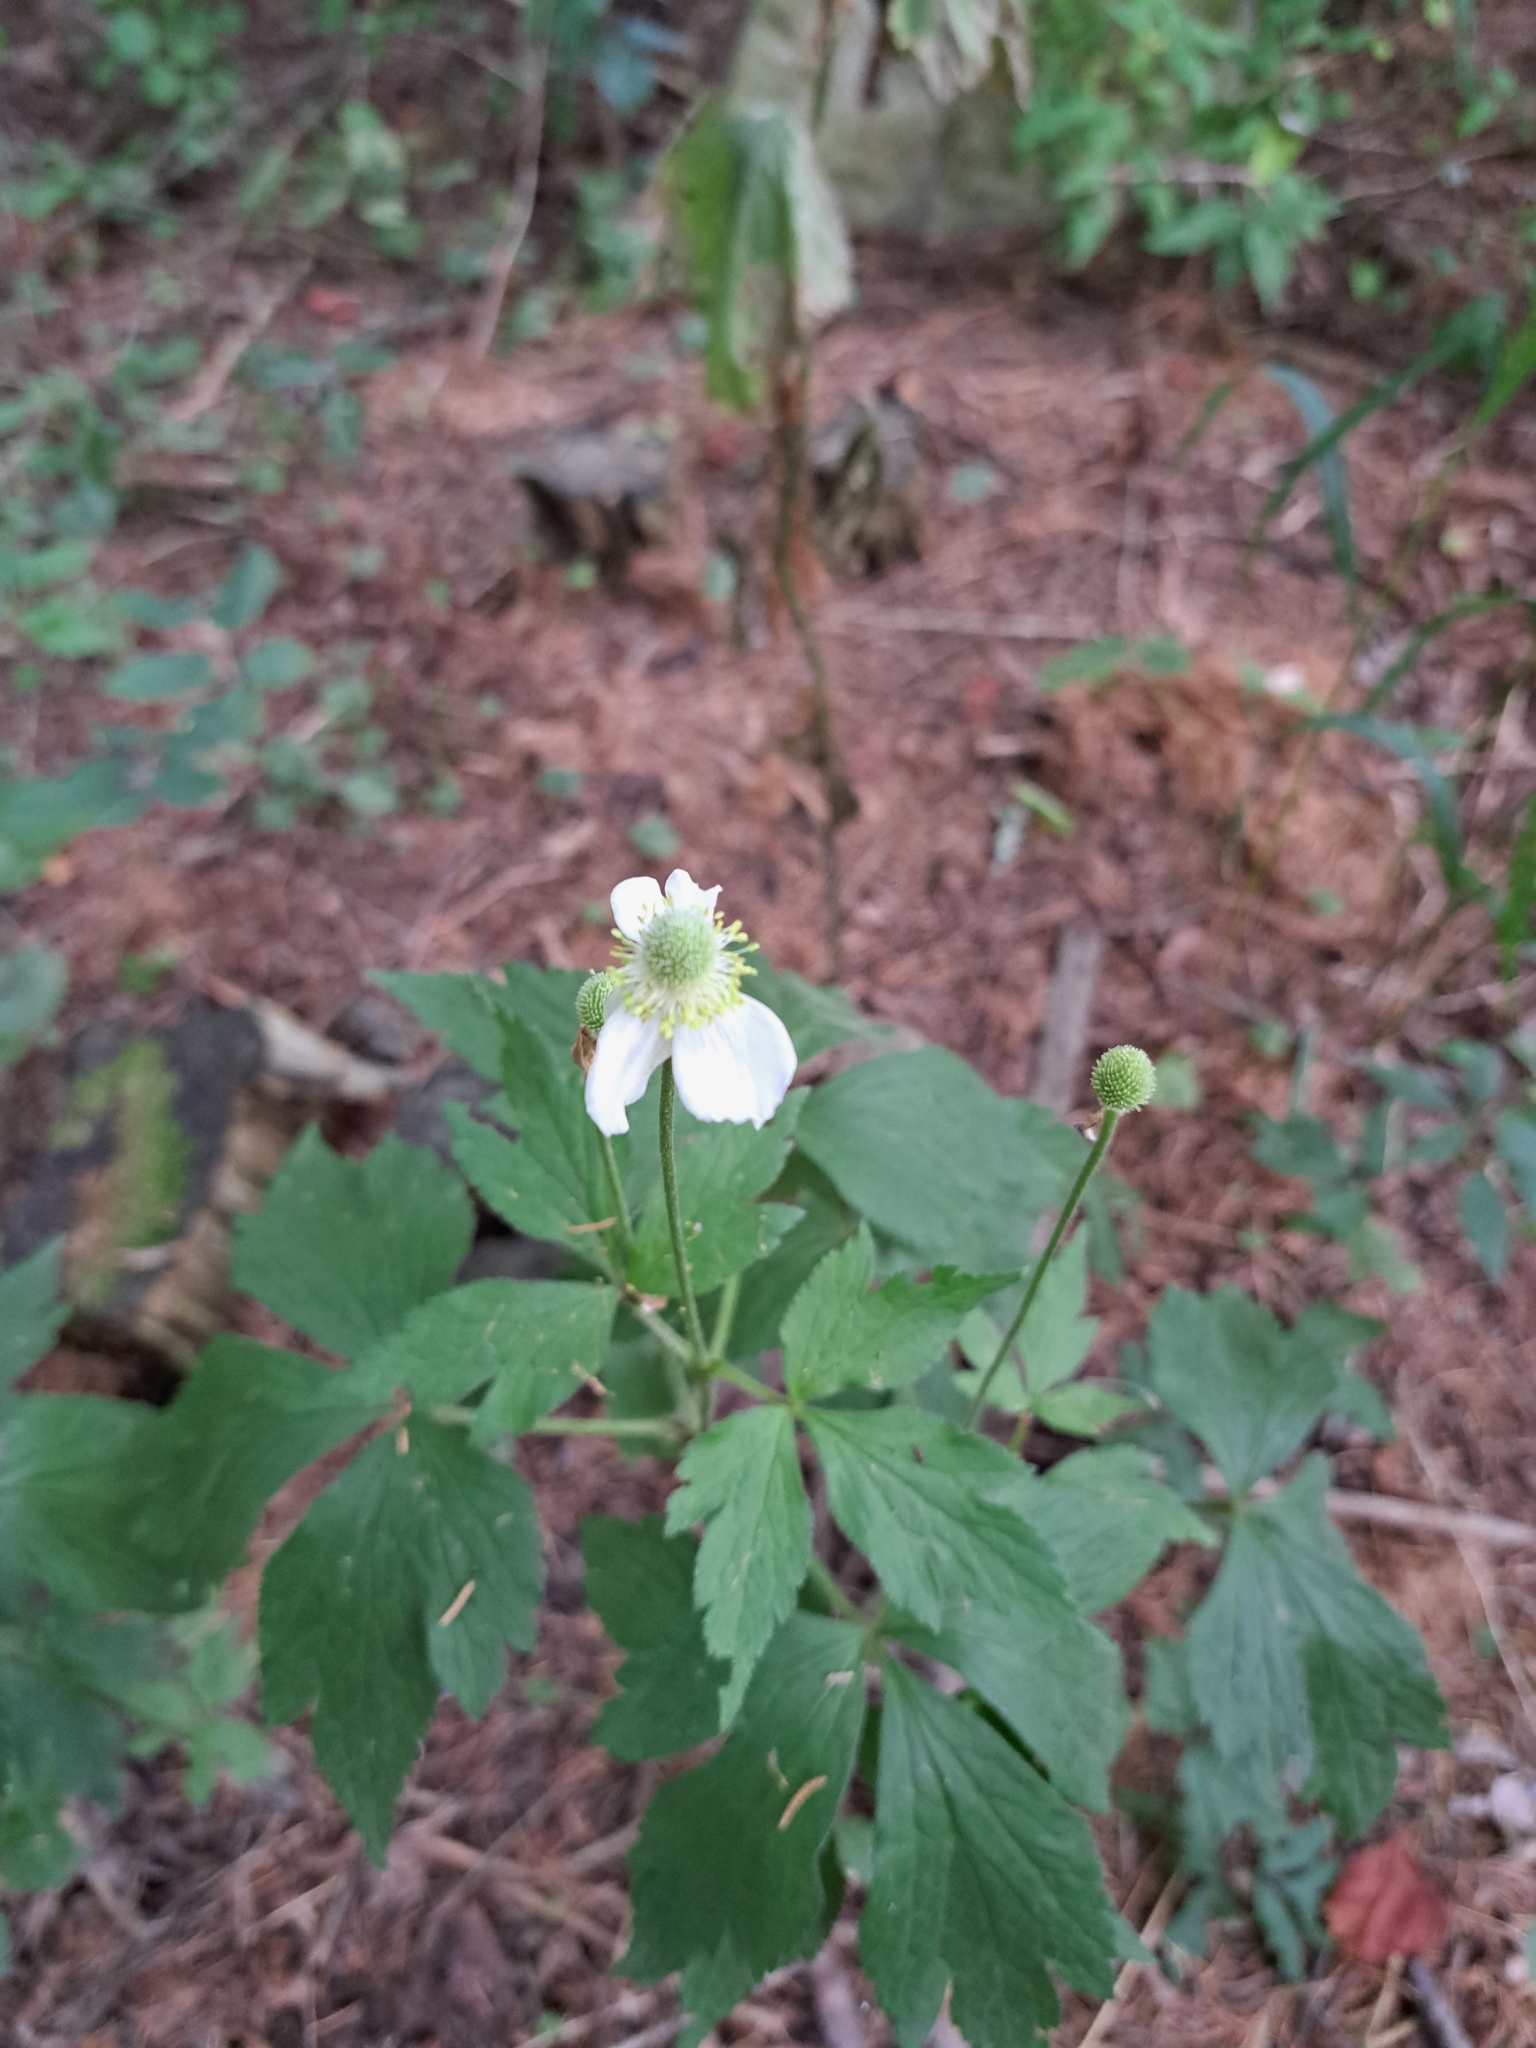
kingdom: Plantae
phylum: Tracheophyta
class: Magnoliopsida
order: Ranunculales
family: Ranunculaceae
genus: Anemone
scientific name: Anemone virginiana
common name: Tall anemone
